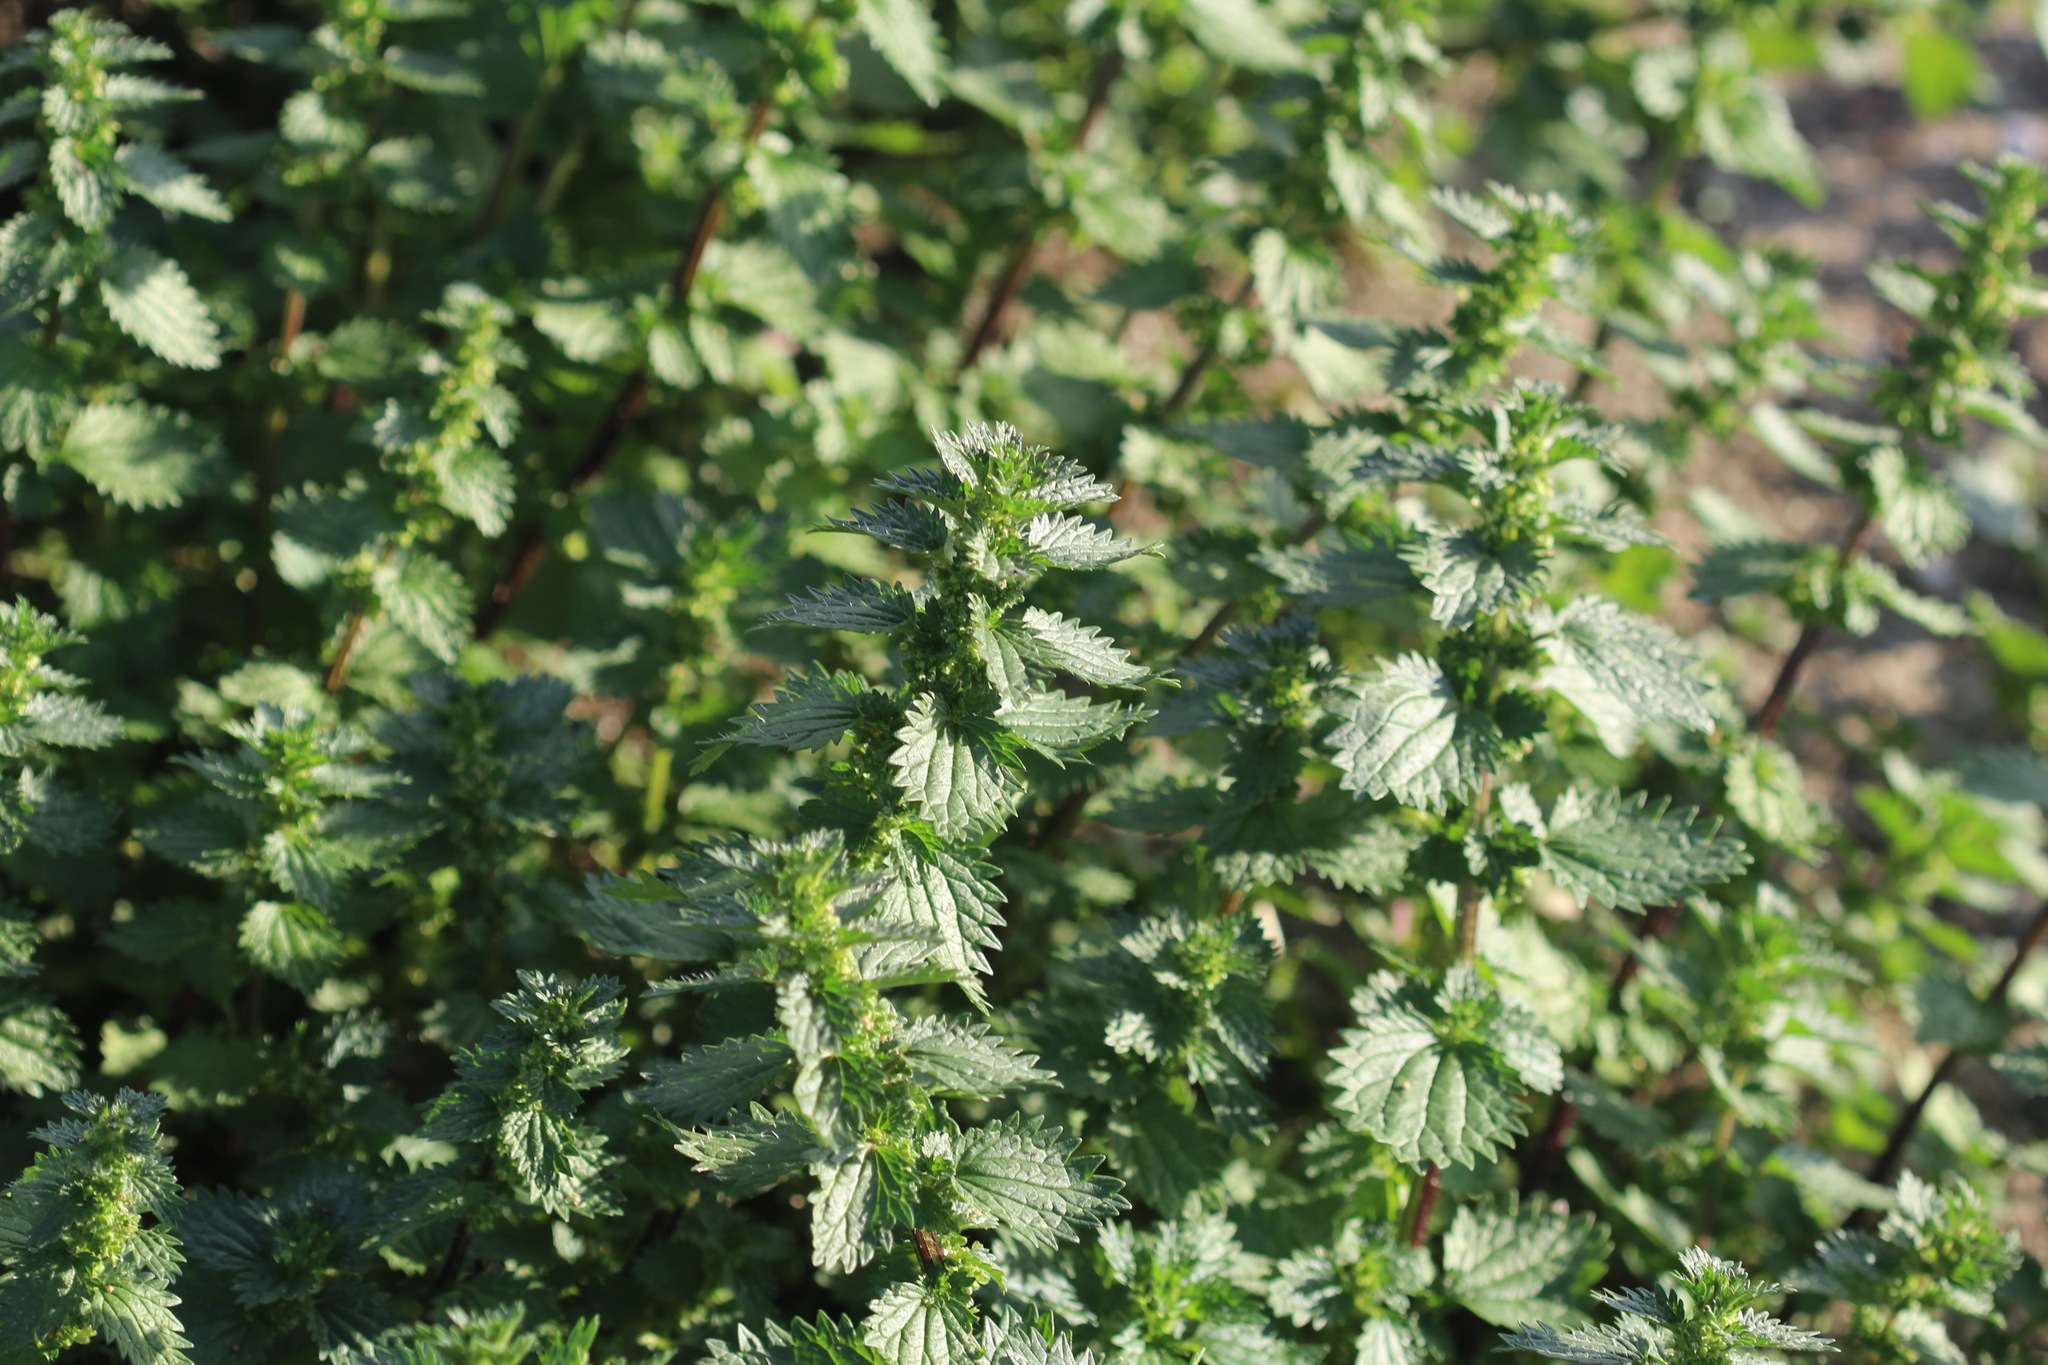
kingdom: Plantae
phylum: Tracheophyta
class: Magnoliopsida
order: Rosales
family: Urticaceae
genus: Urtica
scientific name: Urtica urens
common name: Dwarf nettle
